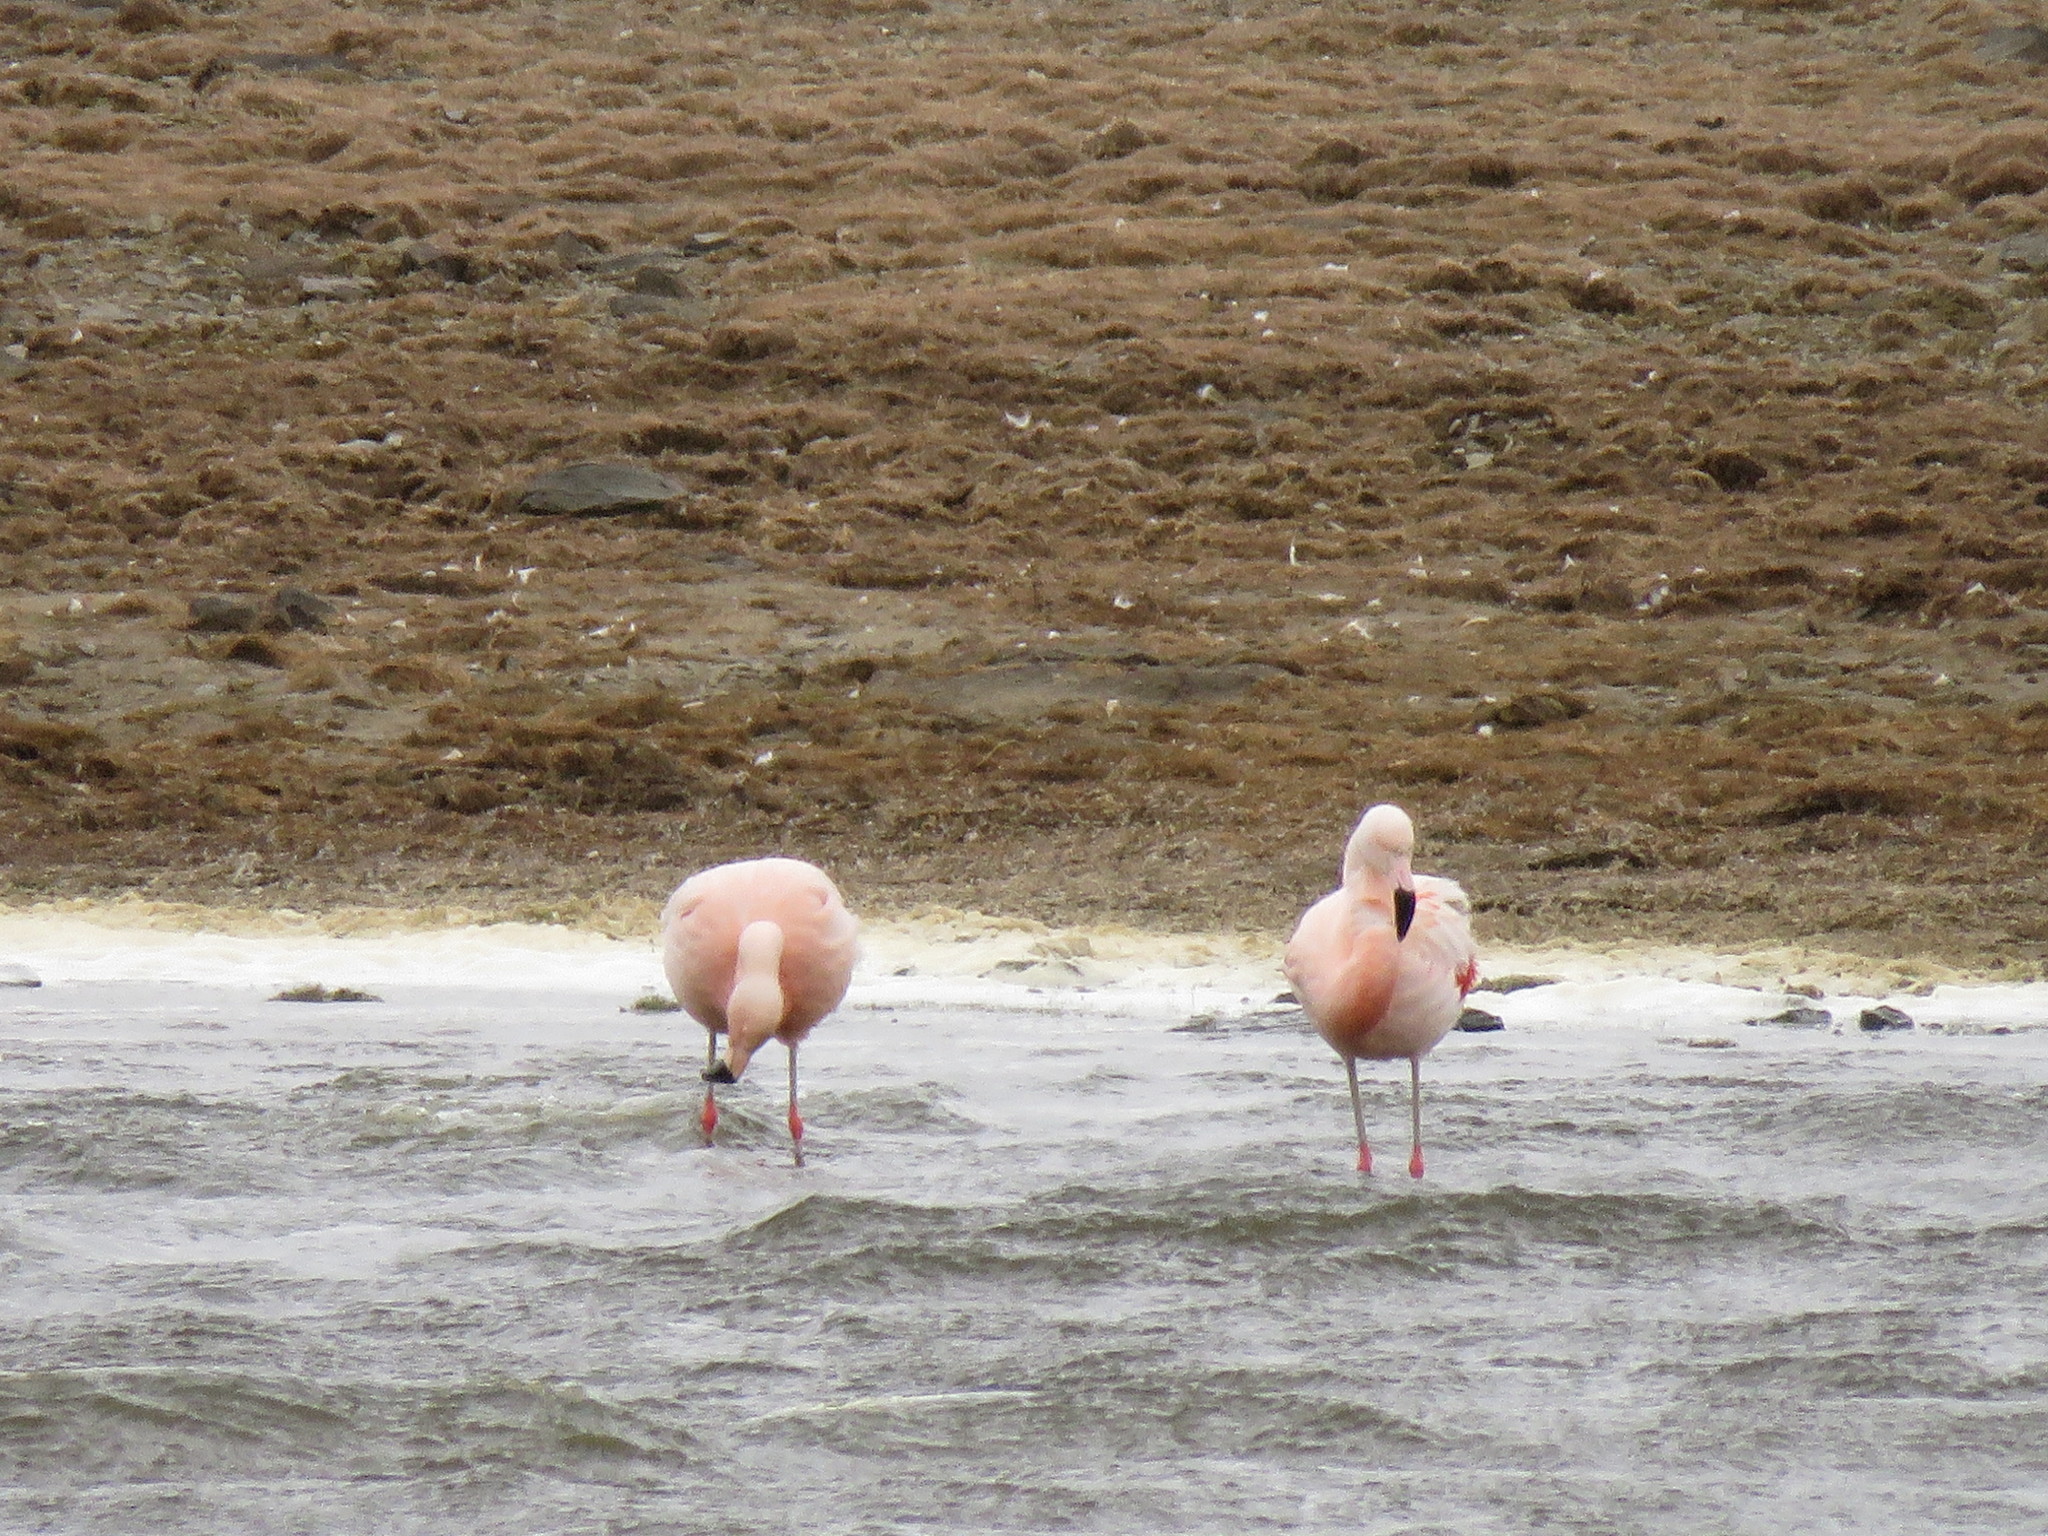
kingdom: Animalia
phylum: Chordata
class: Aves
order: Phoenicopteriformes
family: Phoenicopteridae
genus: Phoenicopterus
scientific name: Phoenicopterus chilensis
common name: Chilean flamingo
